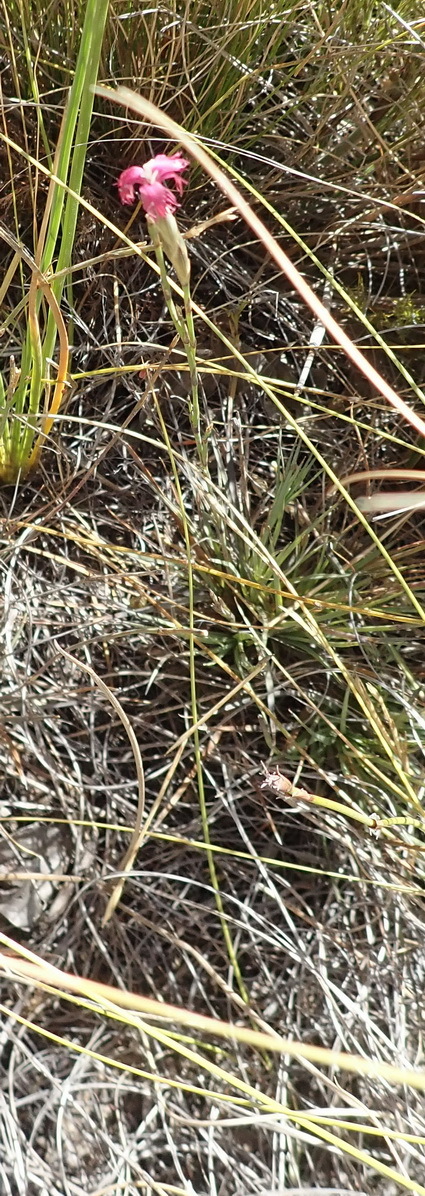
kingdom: Plantae
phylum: Tracheophyta
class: Magnoliopsida
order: Caryophyllales
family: Caryophyllaceae
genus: Dianthus
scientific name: Dianthus bolusii
